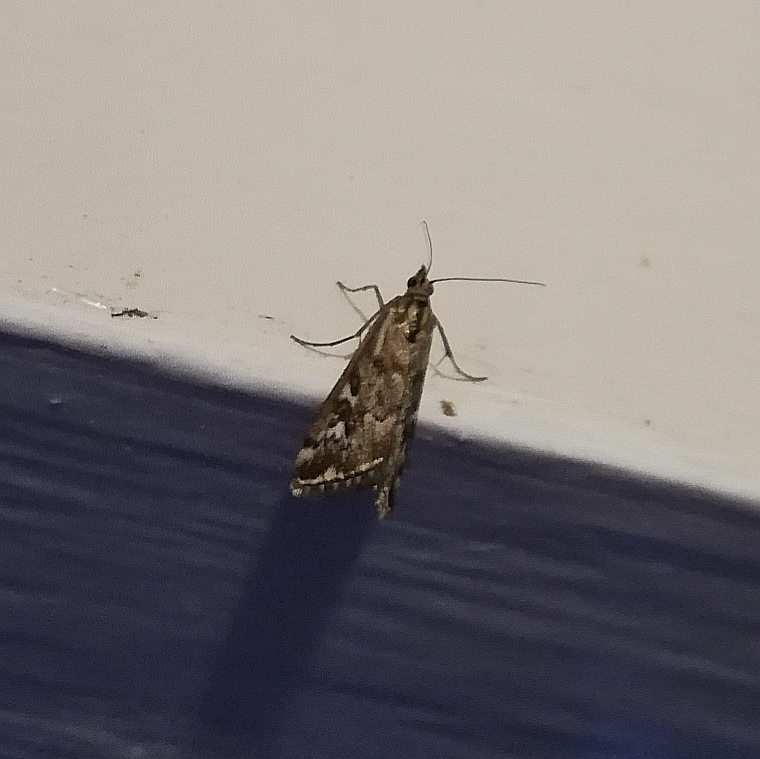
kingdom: Animalia
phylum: Arthropoda
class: Insecta
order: Lepidoptera
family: Crambidae
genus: Loxostege
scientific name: Loxostege frustalis
